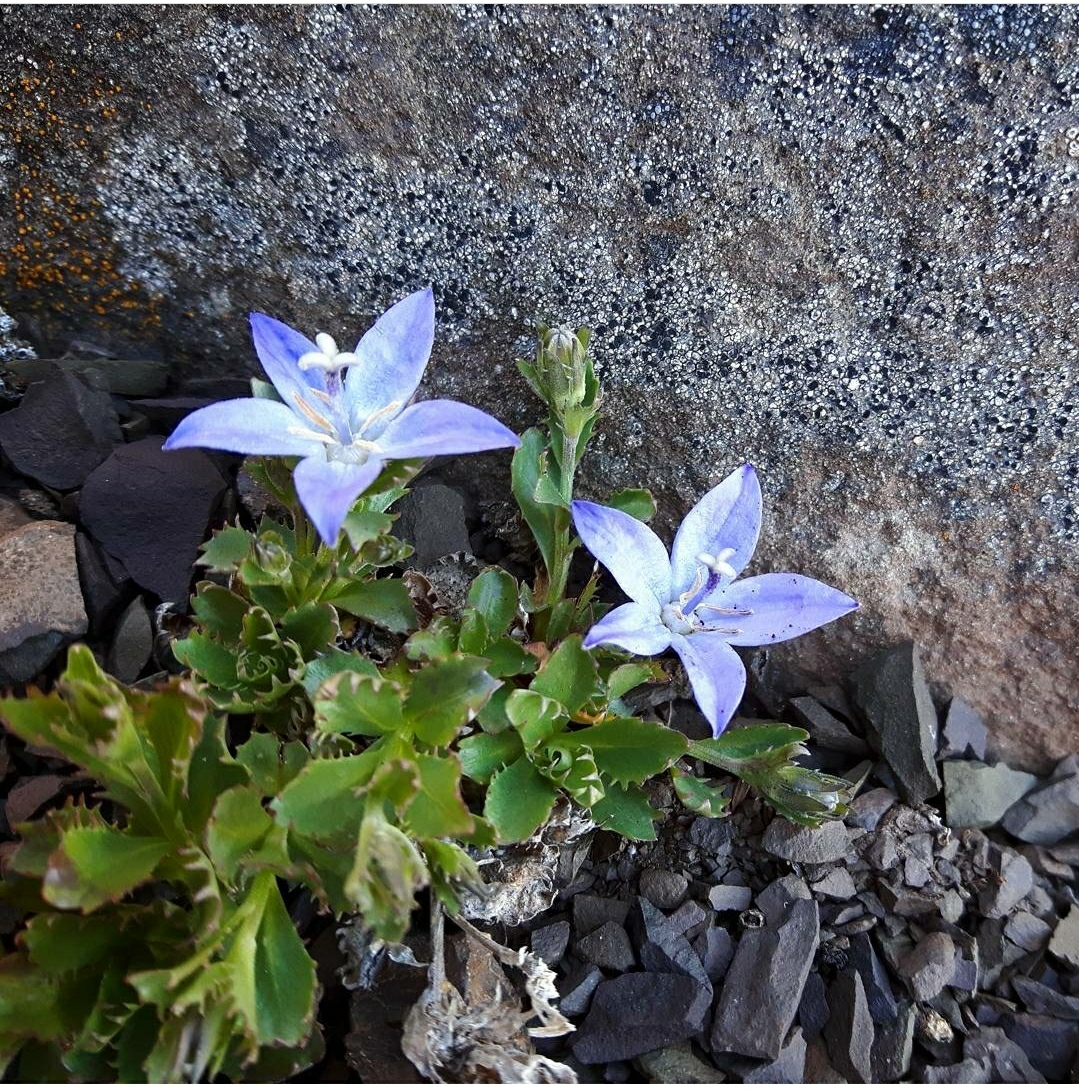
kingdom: Plantae
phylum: Tracheophyta
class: Magnoliopsida
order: Asterales
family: Campanulaceae
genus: Campanula
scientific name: Campanula piperi
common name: Olympic bellflower
